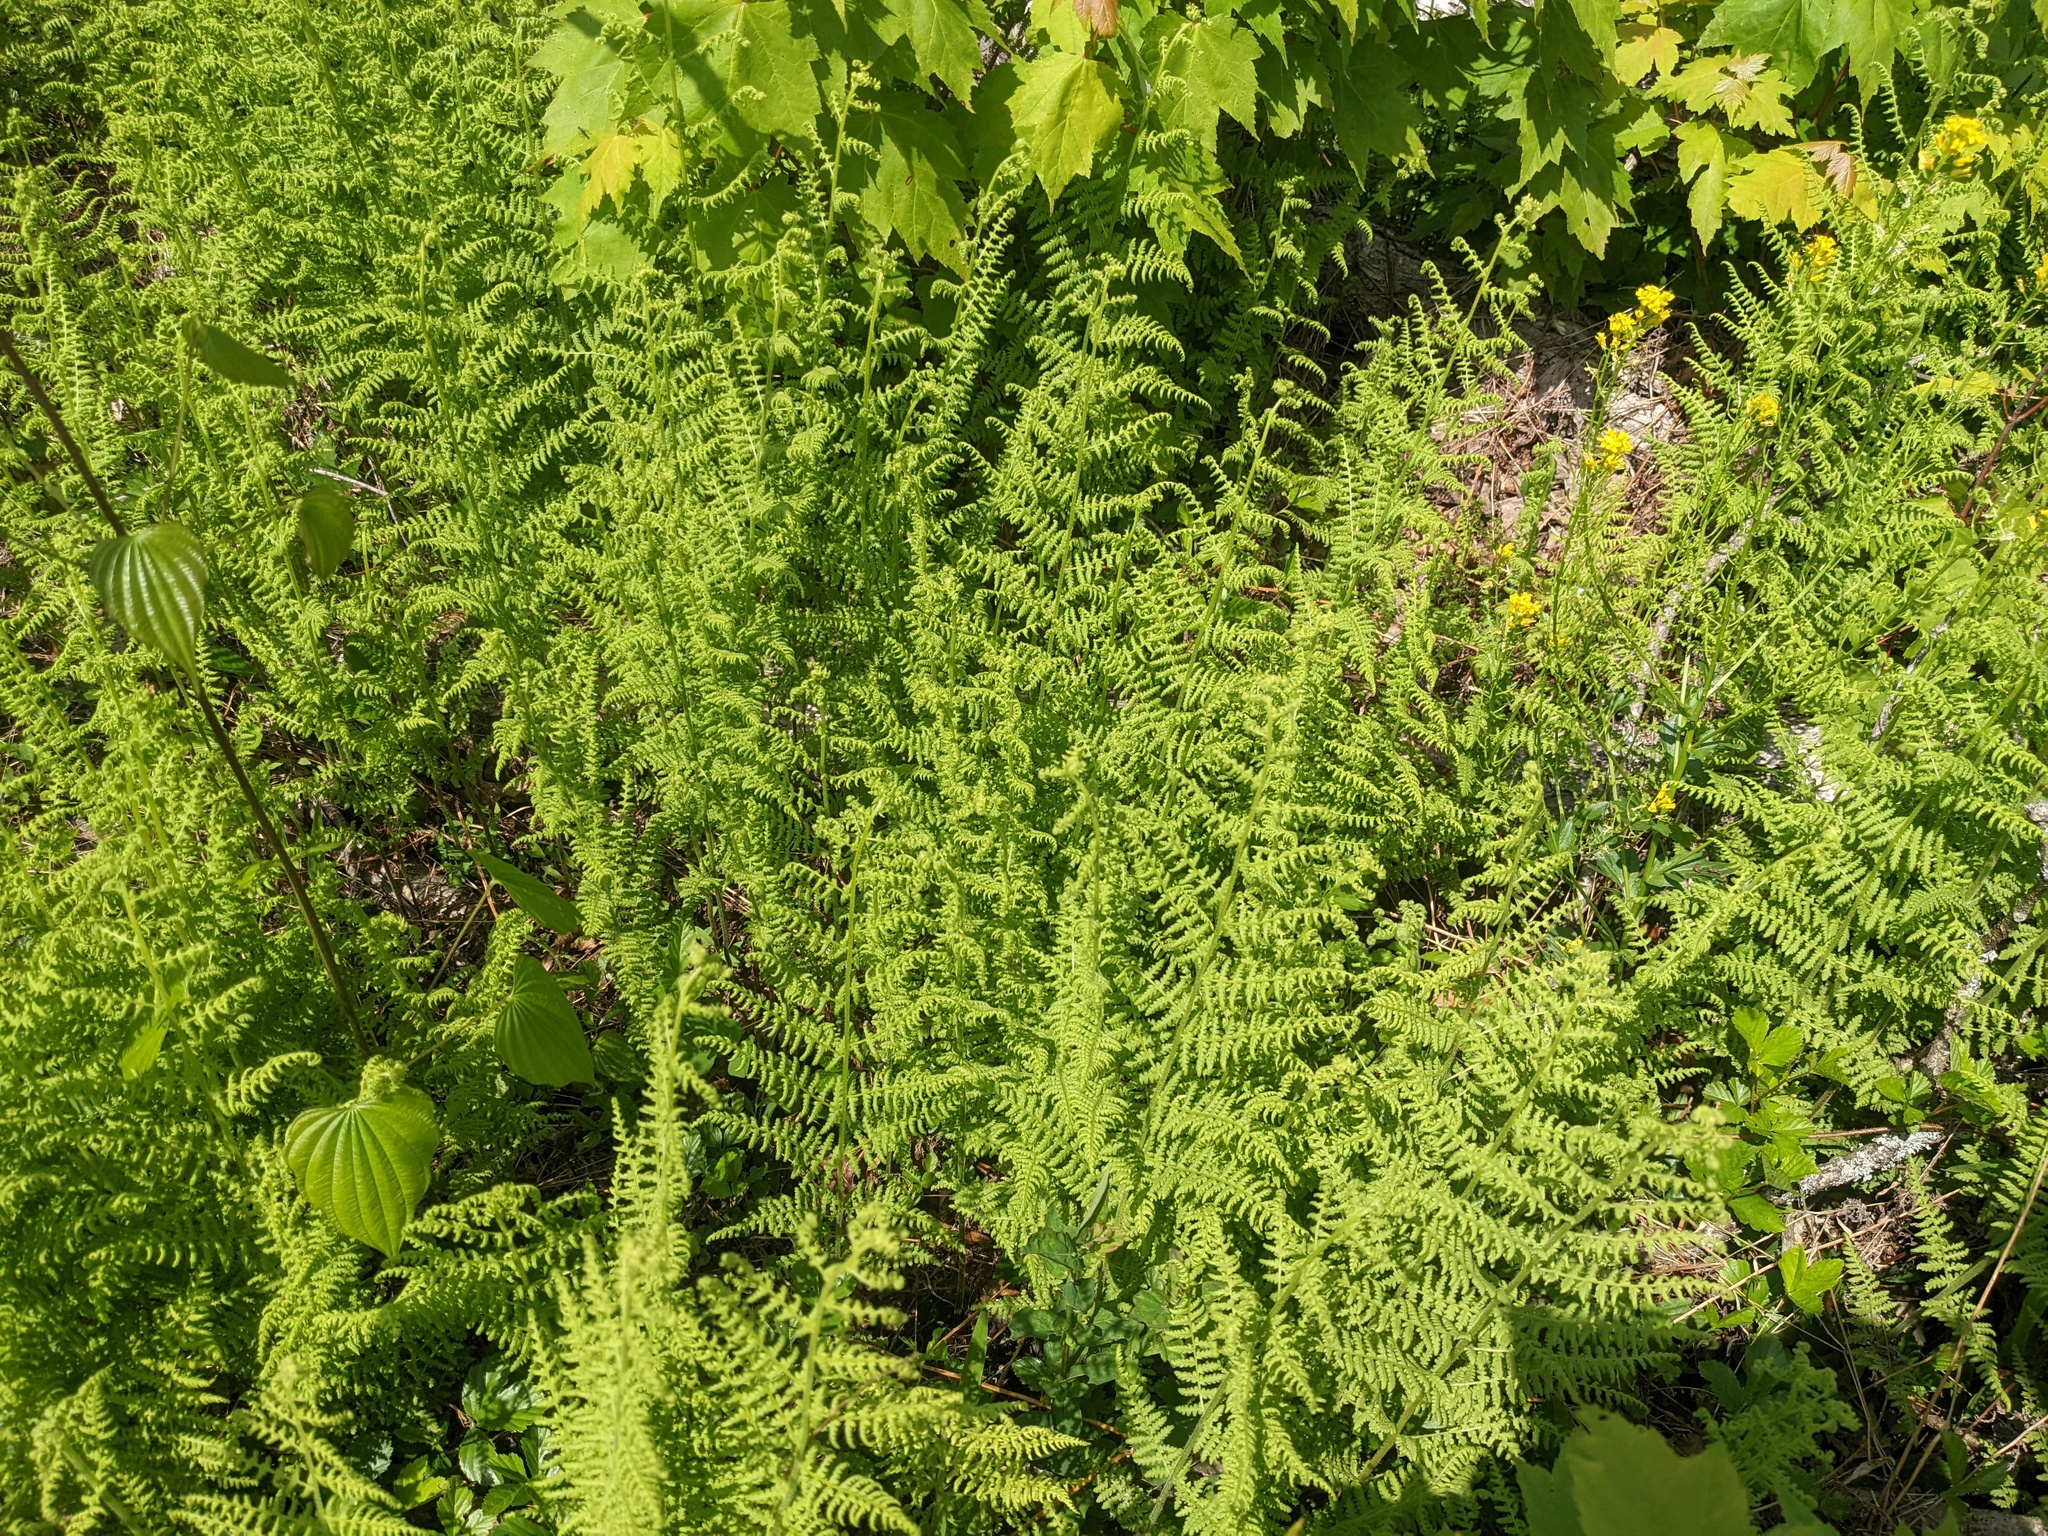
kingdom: Plantae
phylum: Tracheophyta
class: Polypodiopsida
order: Polypodiales
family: Dennstaedtiaceae
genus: Sitobolium
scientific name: Sitobolium punctilobum
